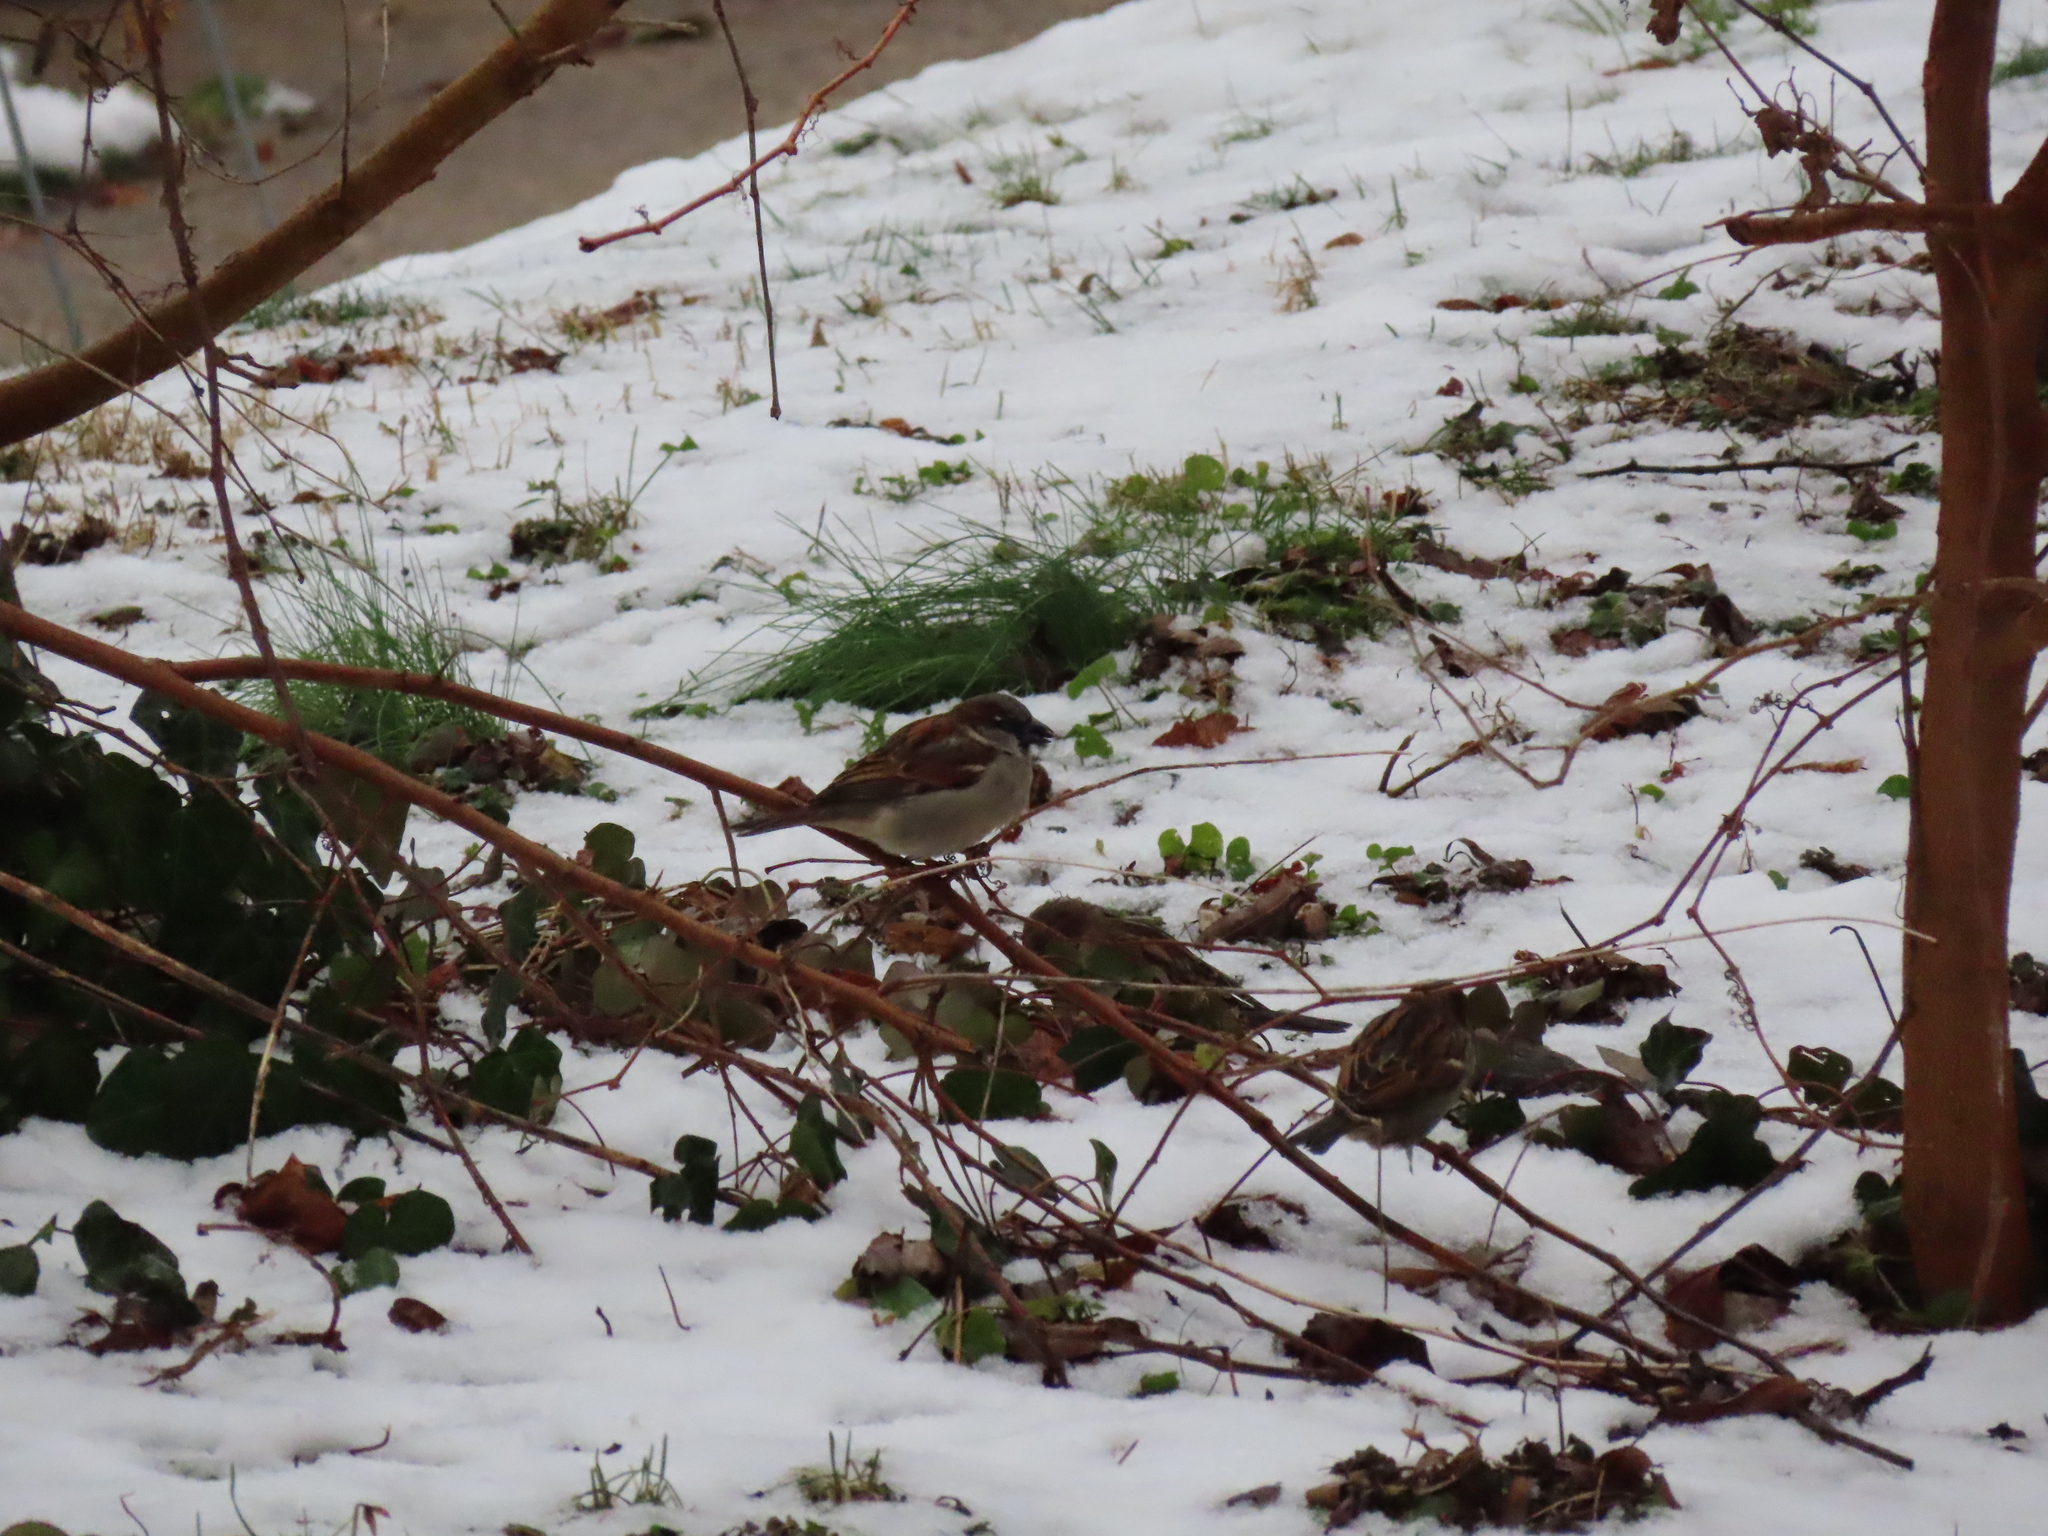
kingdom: Animalia
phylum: Chordata
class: Aves
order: Passeriformes
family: Passeridae
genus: Passer
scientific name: Passer domesticus
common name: House sparrow
